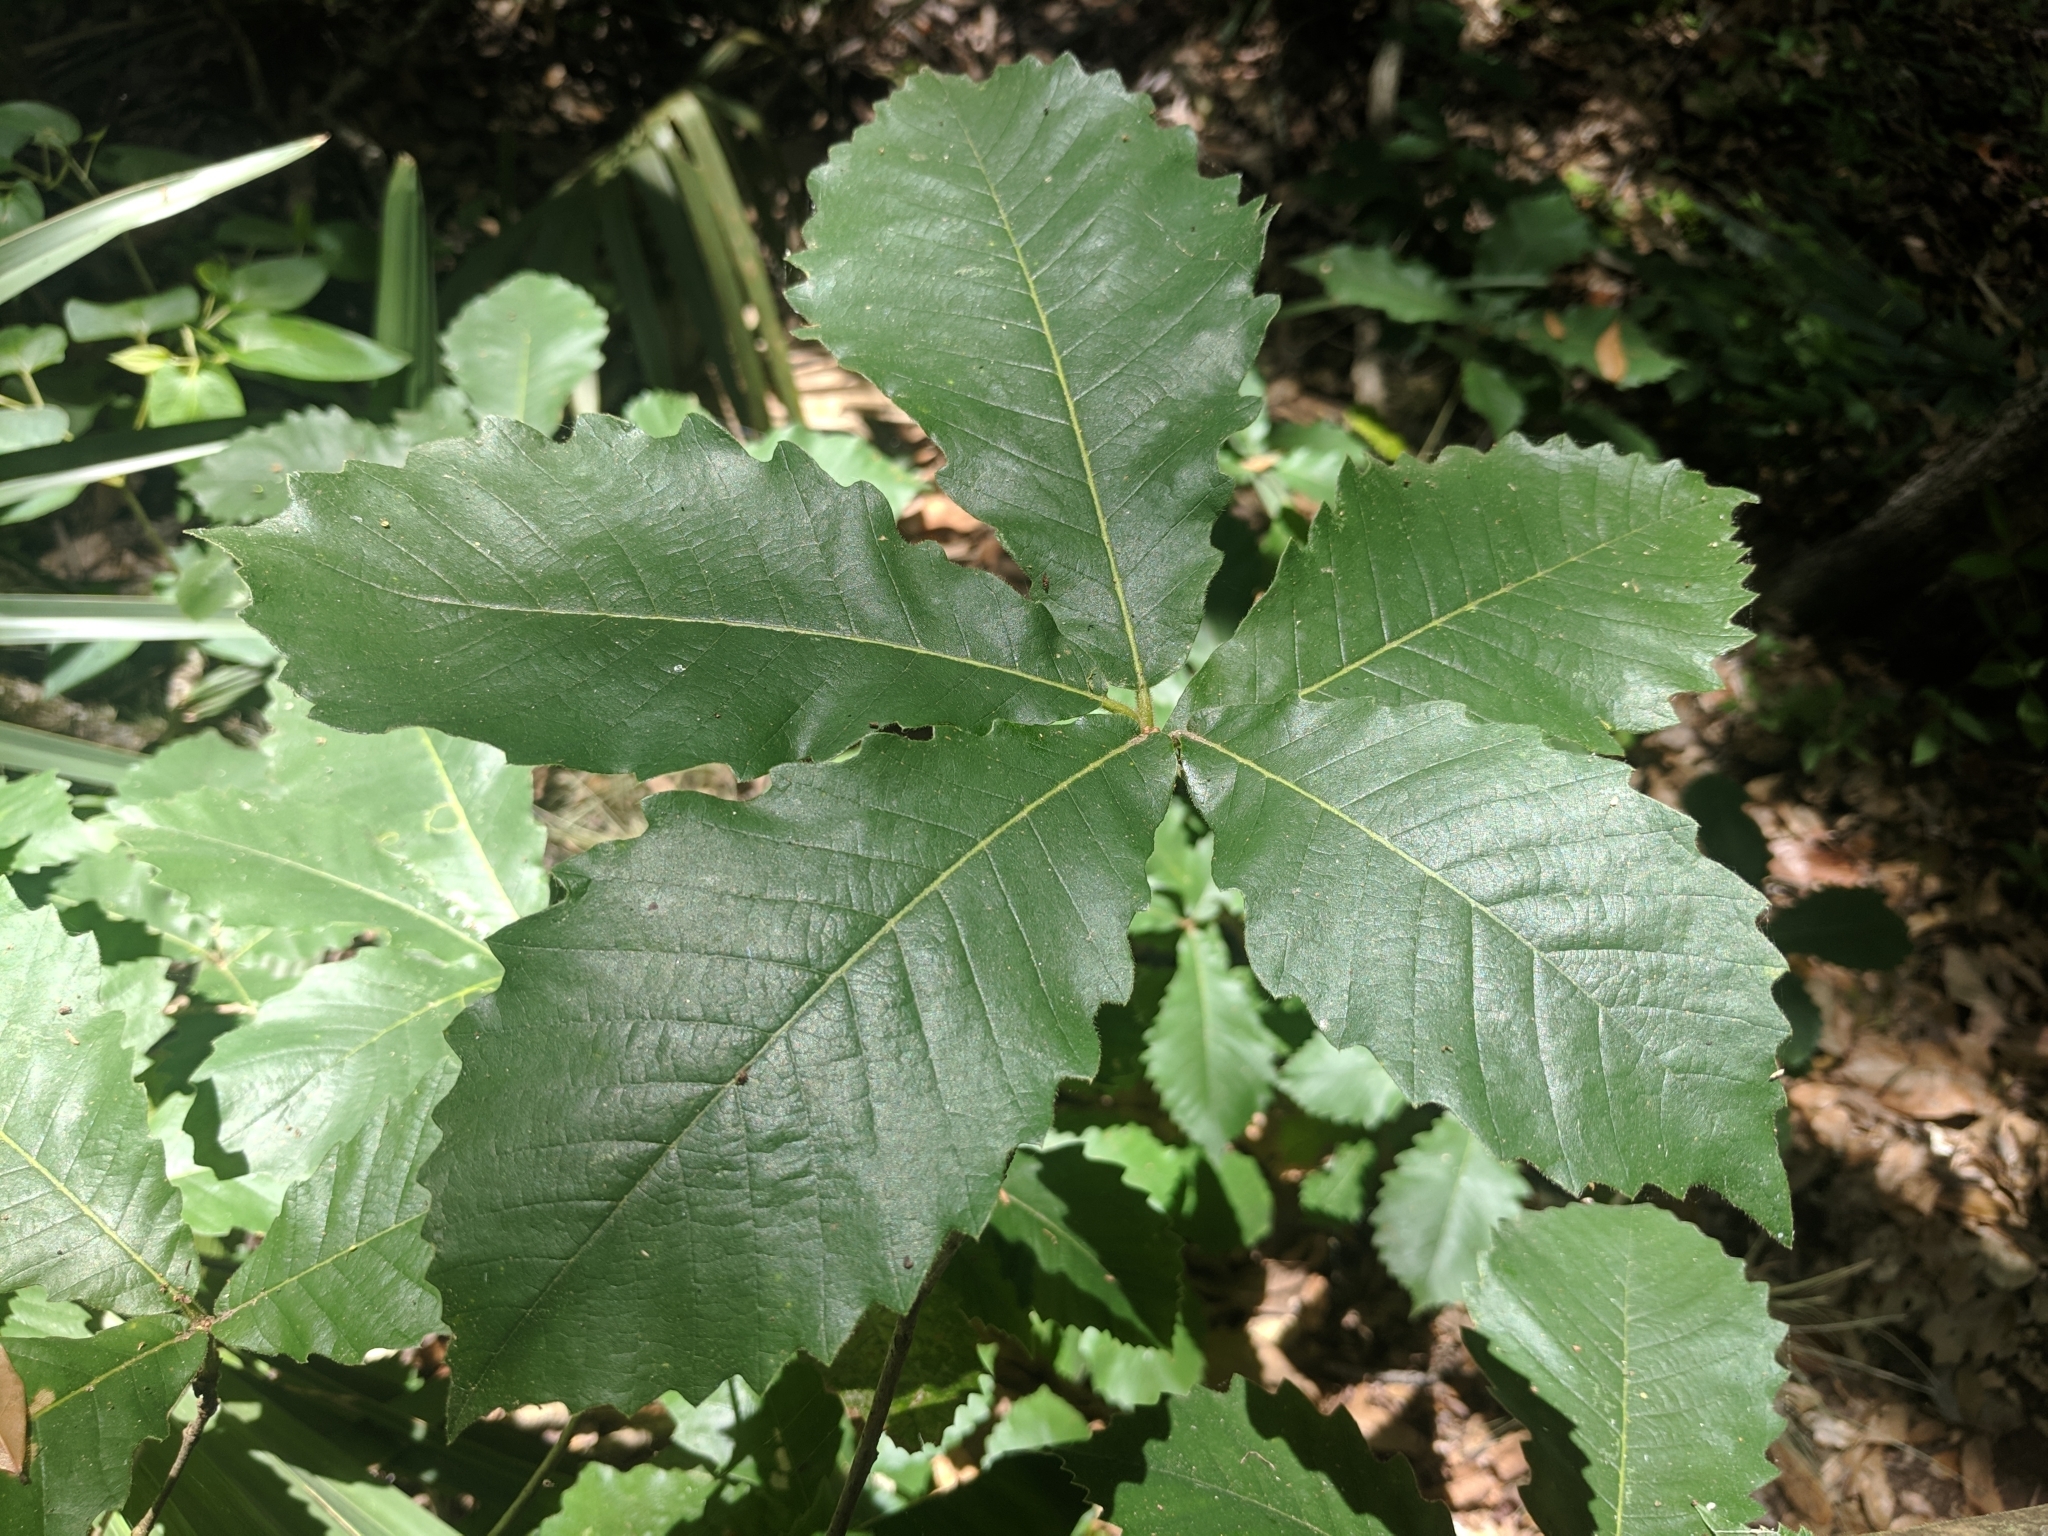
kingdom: Plantae
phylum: Tracheophyta
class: Magnoliopsida
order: Fagales
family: Fagaceae
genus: Quercus
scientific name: Quercus michauxii
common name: Swamp chestnut oak
